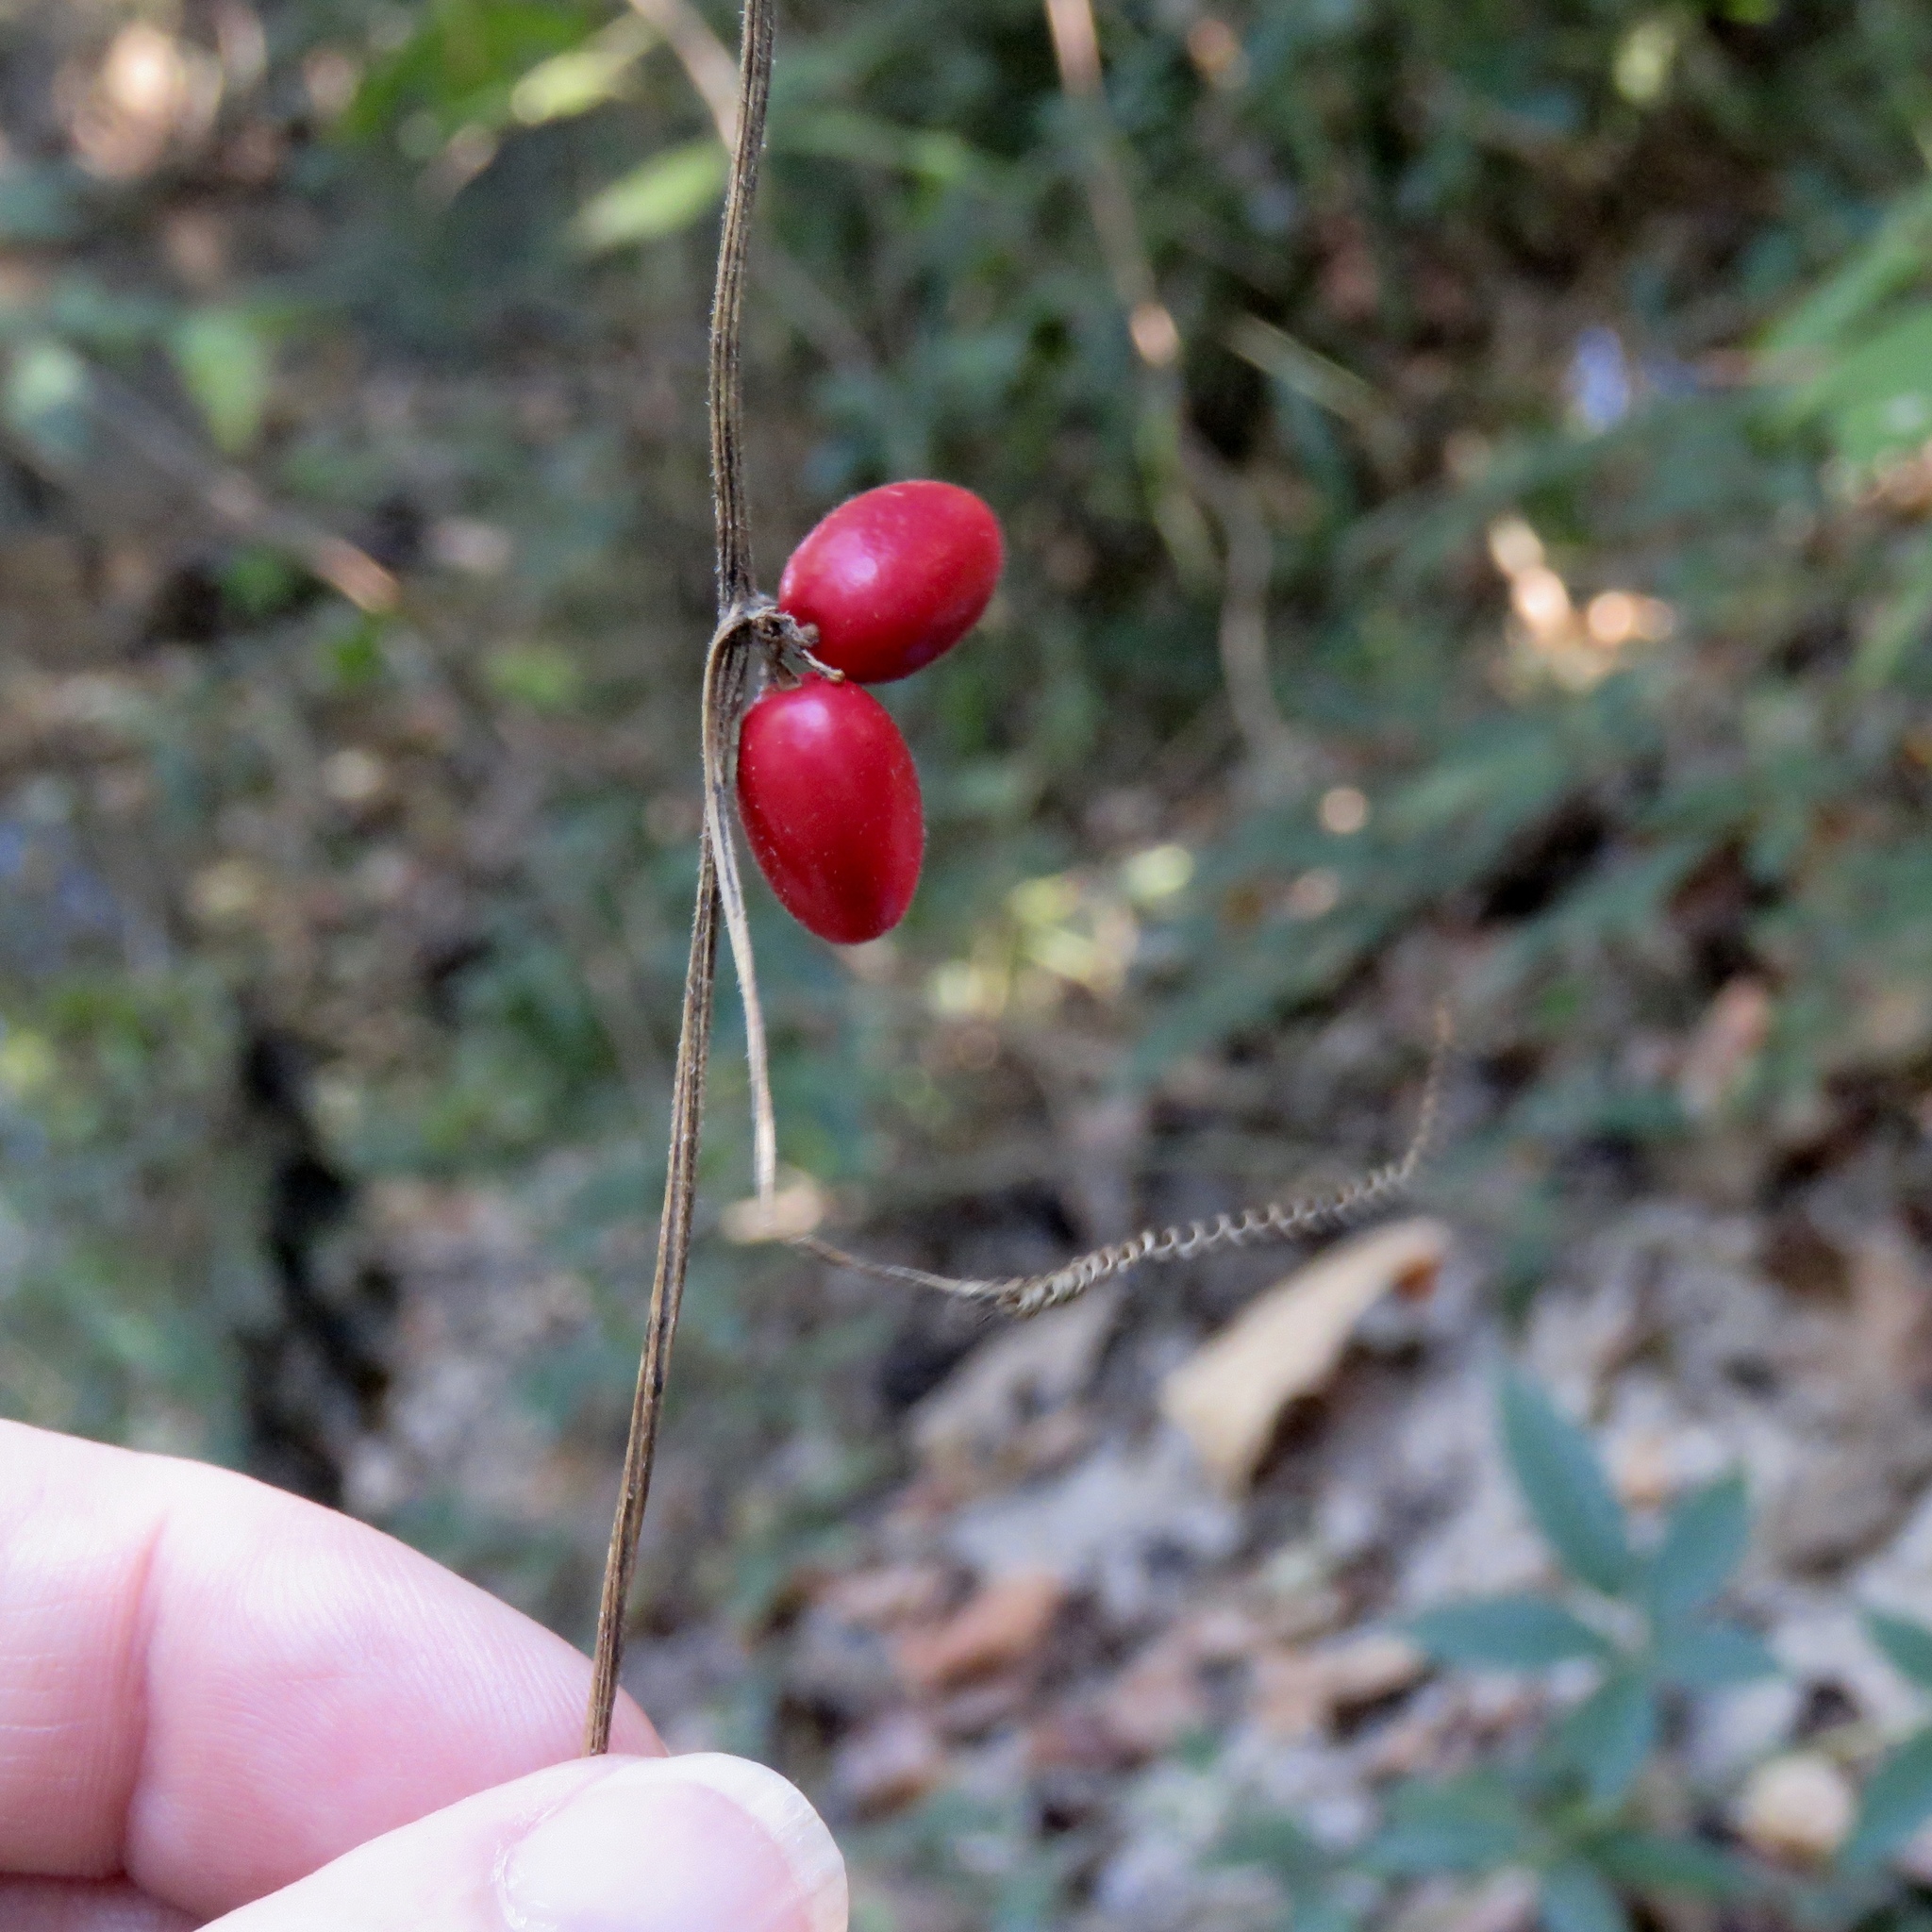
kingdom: Plantae
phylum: Tracheophyta
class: Magnoliopsida
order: Cucurbitales
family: Cucurbitaceae
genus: Cayaponia
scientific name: Cayaponia quinqueloba
